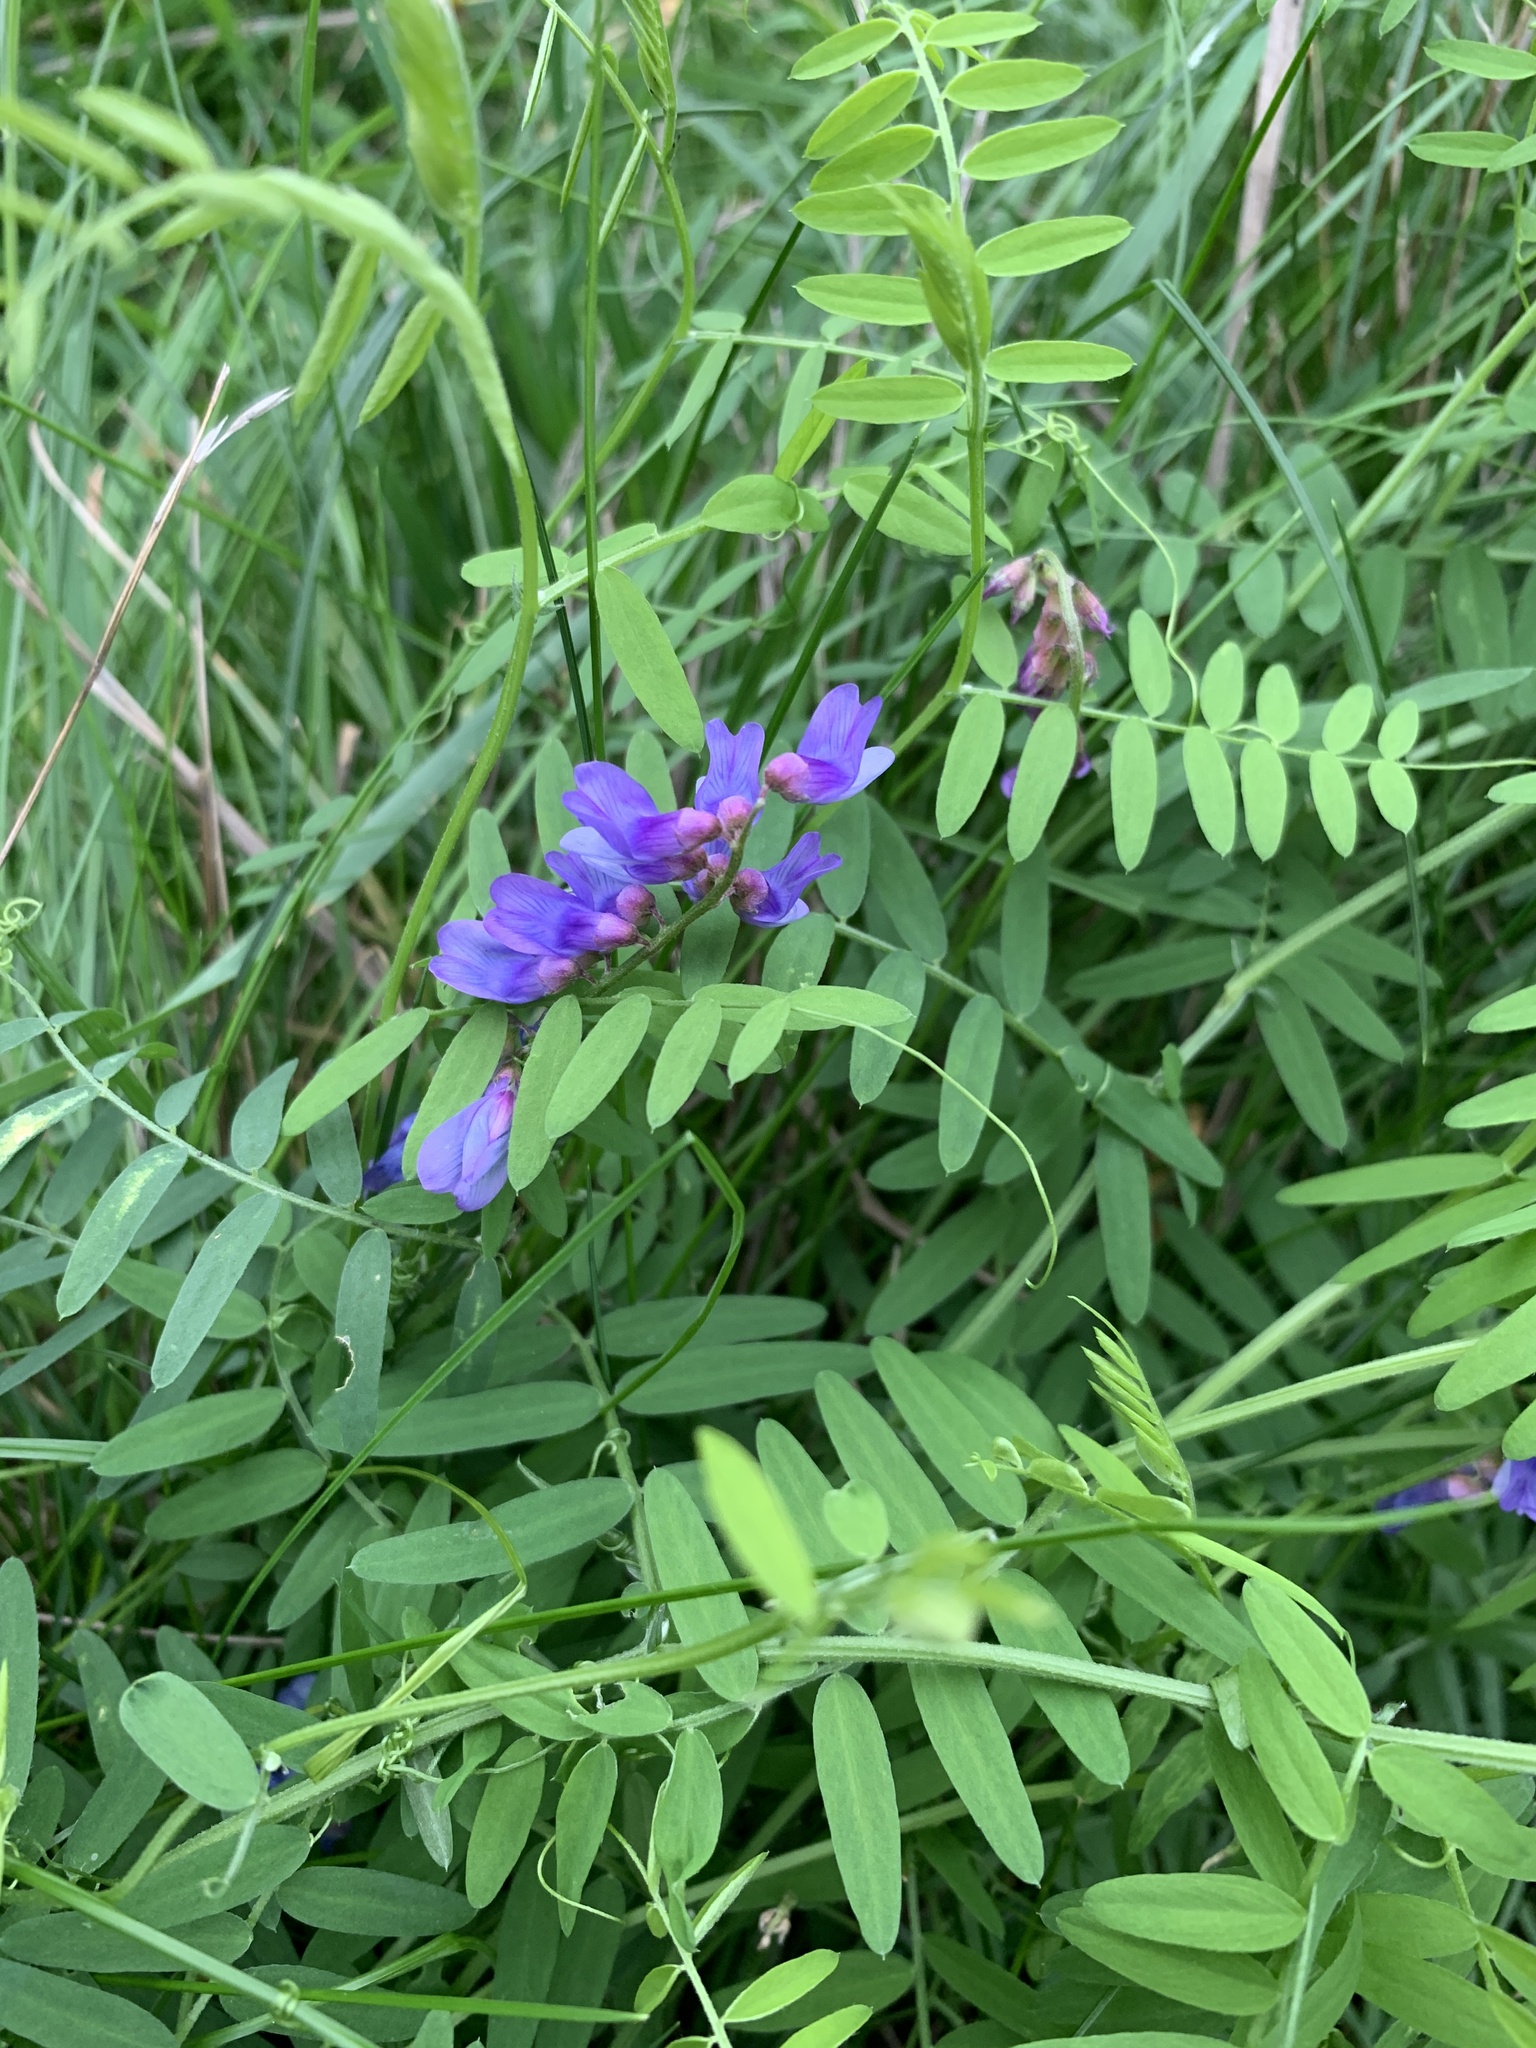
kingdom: Plantae
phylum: Tracheophyta
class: Magnoliopsida
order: Fabales
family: Fabaceae
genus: Vicia
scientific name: Vicia cracca
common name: Bird vetch
